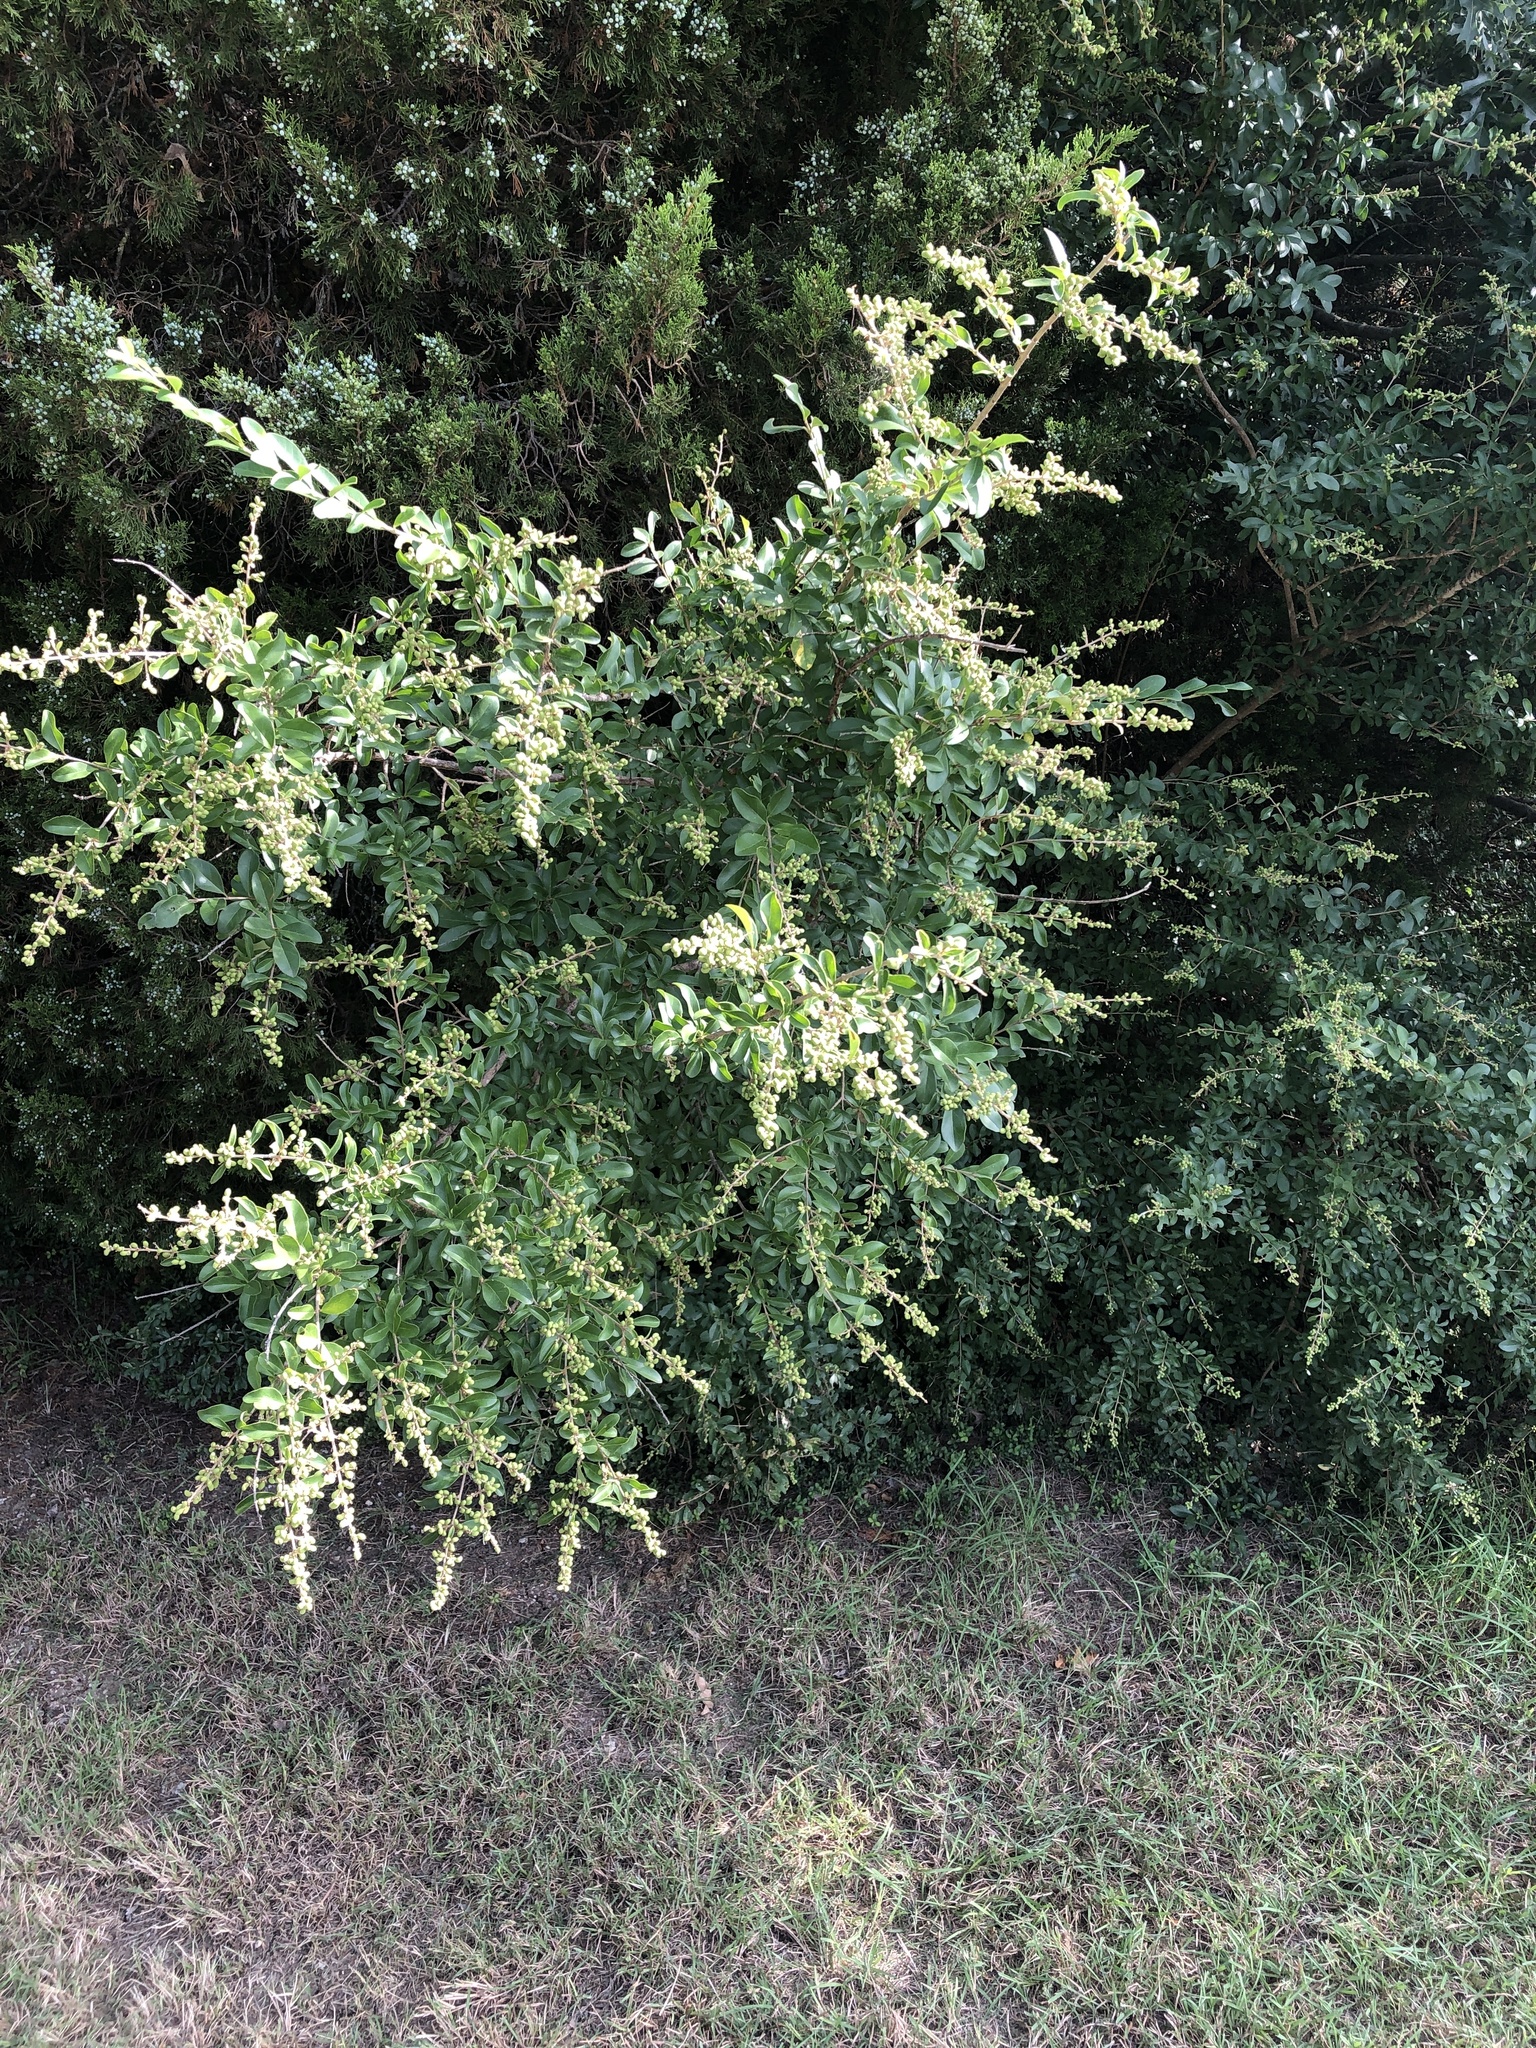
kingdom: Plantae
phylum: Tracheophyta
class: Magnoliopsida
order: Lamiales
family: Oleaceae
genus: Ligustrum
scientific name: Ligustrum quihoui
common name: Waxyleaf privet
